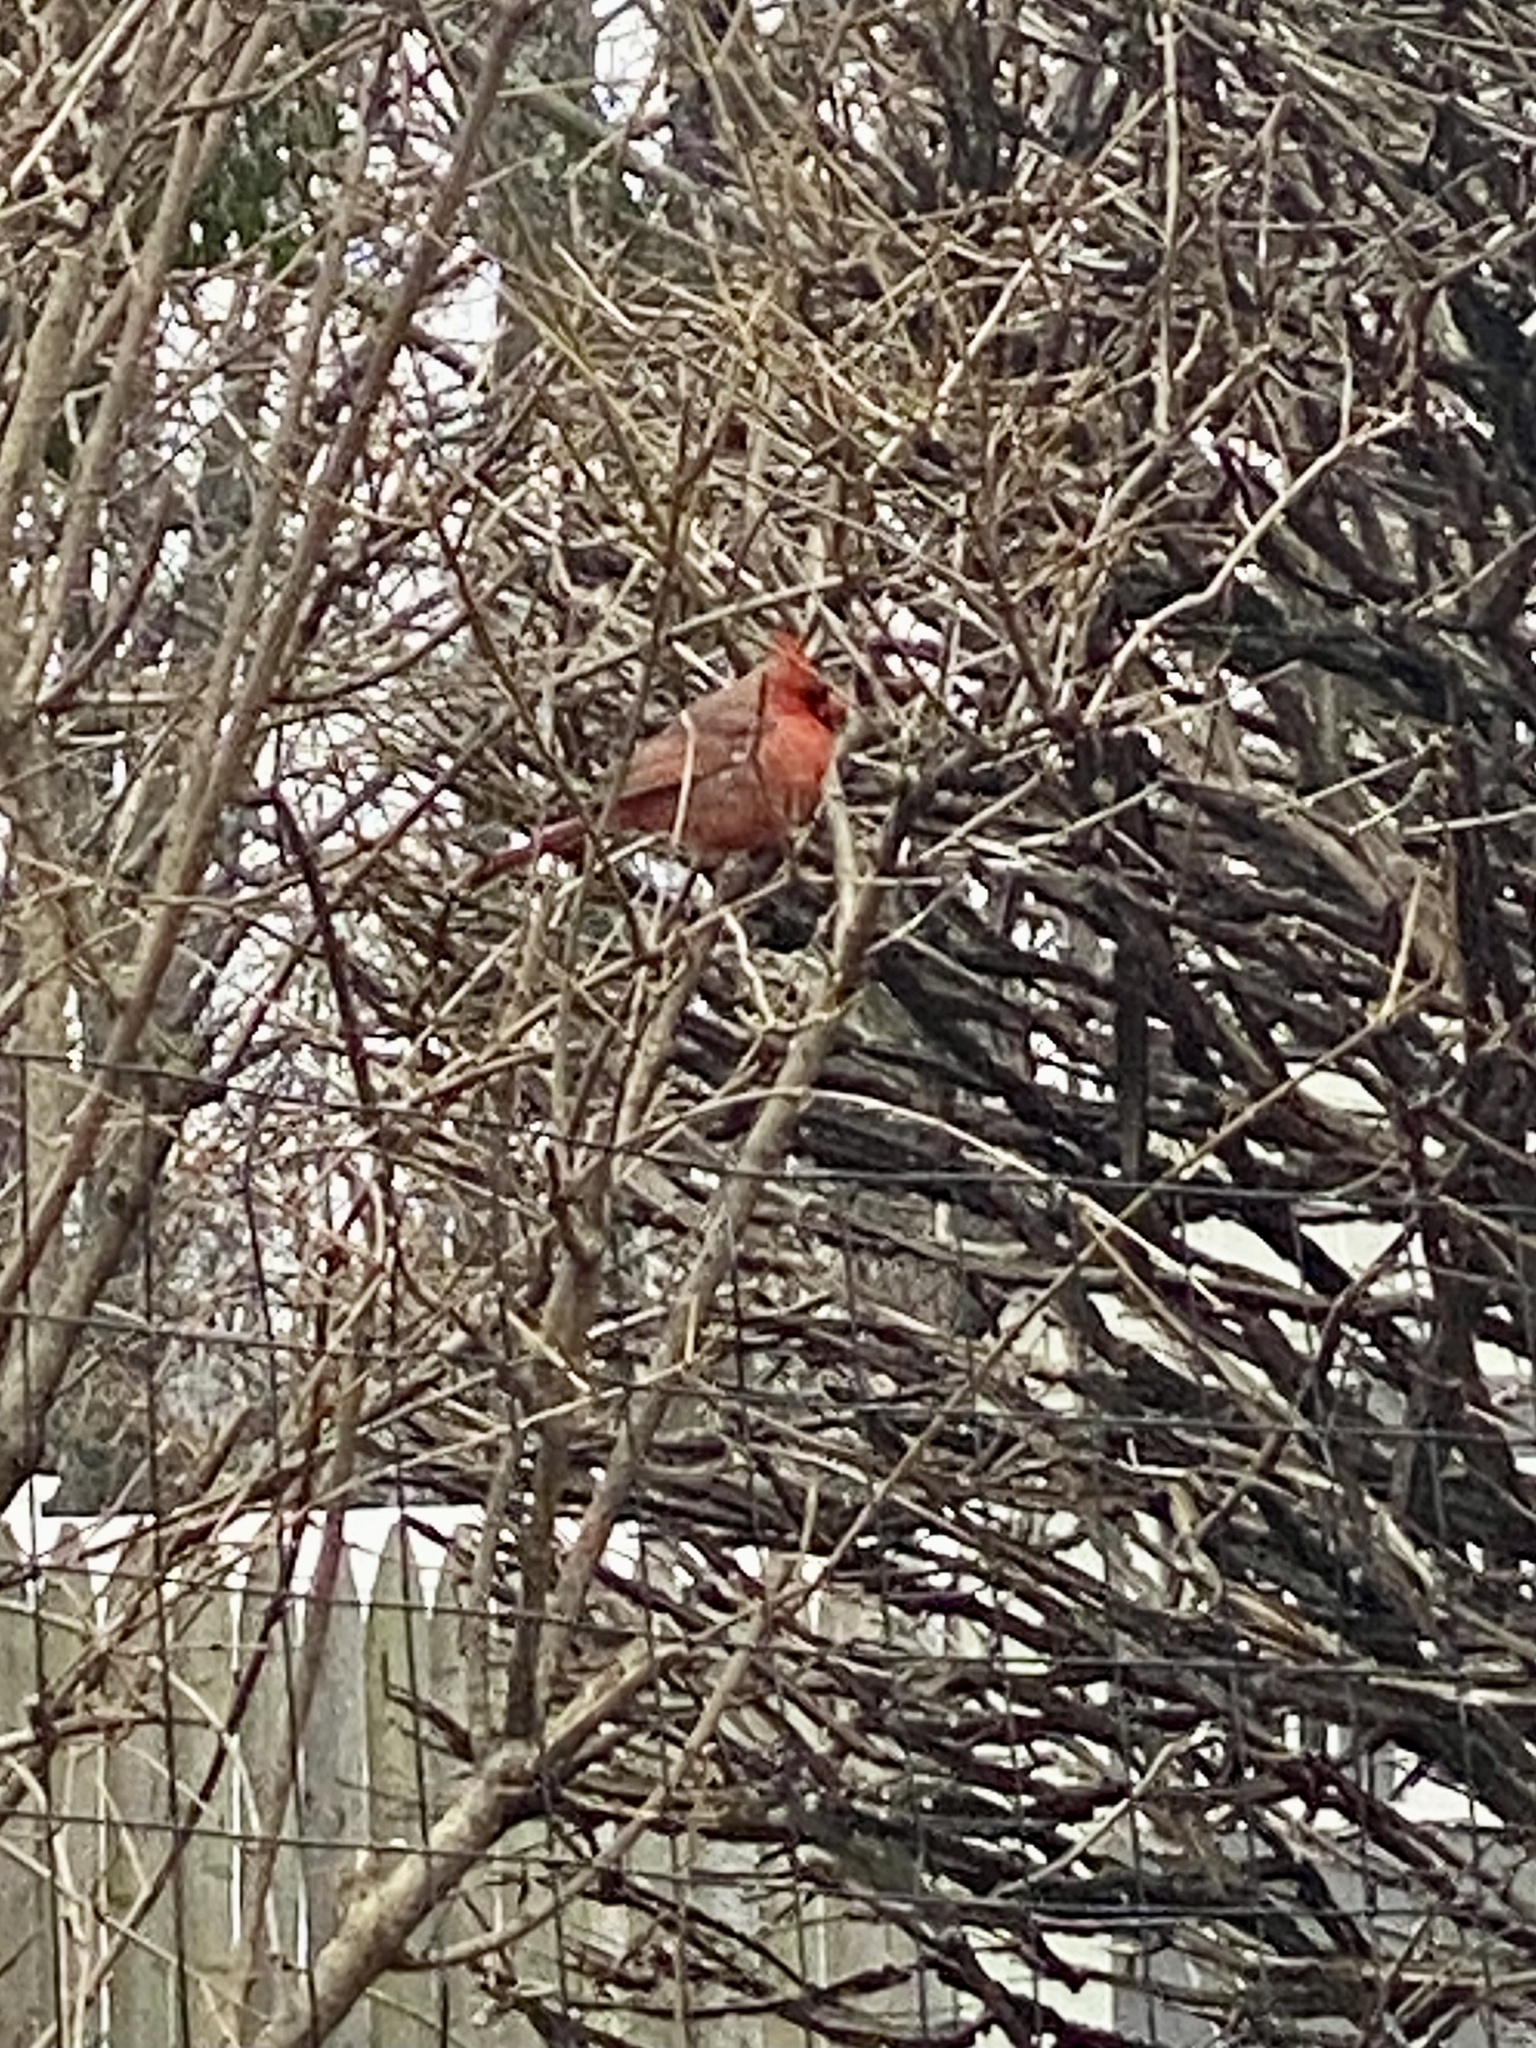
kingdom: Animalia
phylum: Chordata
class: Aves
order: Passeriformes
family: Cardinalidae
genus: Cardinalis
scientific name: Cardinalis cardinalis
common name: Northern cardinal
